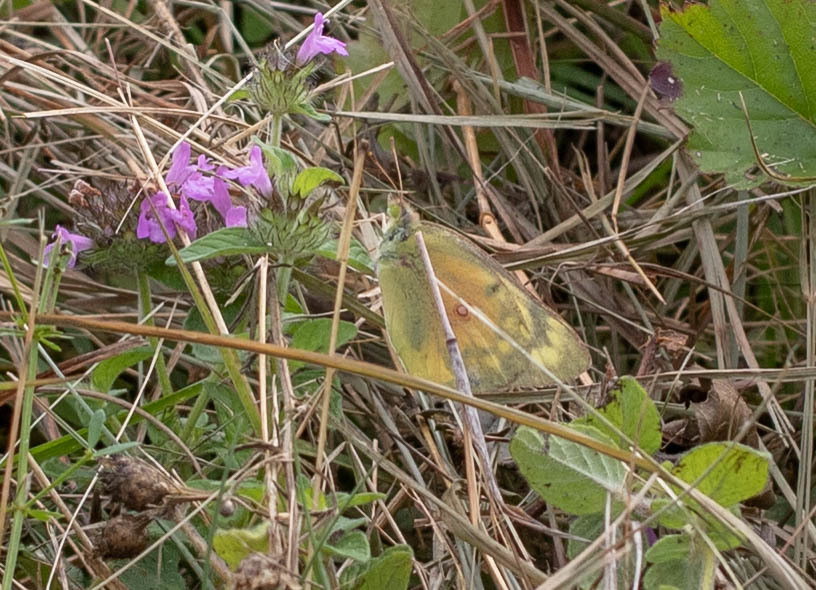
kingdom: Animalia
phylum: Arthropoda
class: Insecta
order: Lepidoptera
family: Pieridae
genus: Colias
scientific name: Colias eurytheme
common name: Alfalfa butterfly
